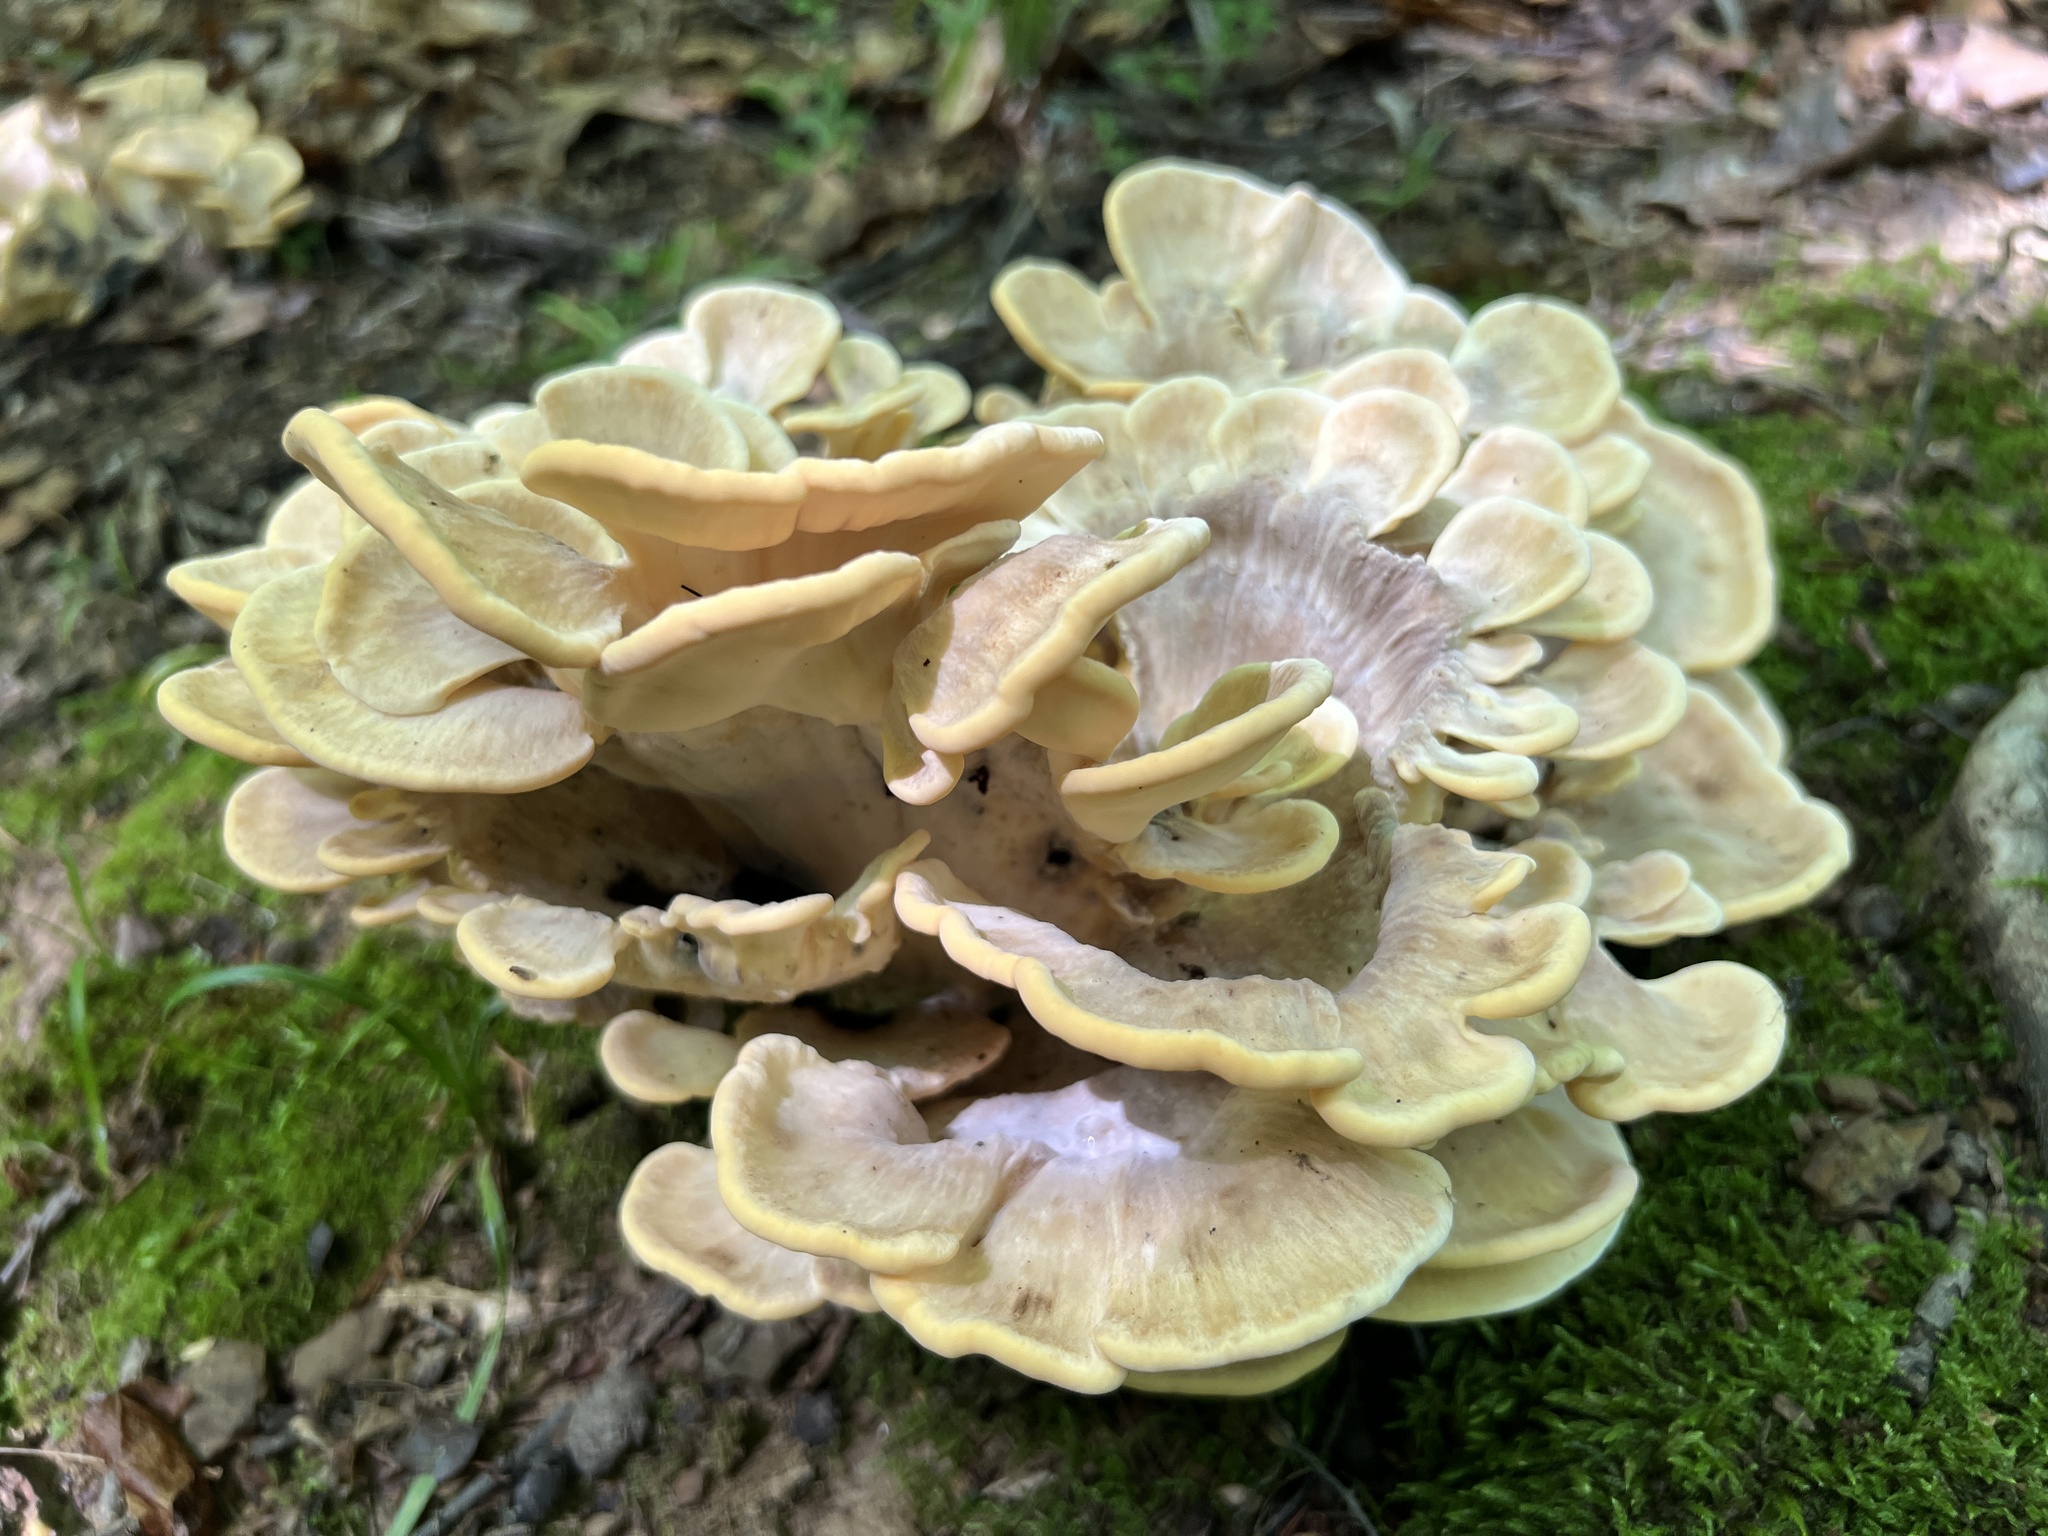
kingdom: Fungi
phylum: Basidiomycota
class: Agaricomycetes
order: Polyporales
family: Meripilaceae
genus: Meripilus
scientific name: Meripilus sumstinei
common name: Black-staining polypore
